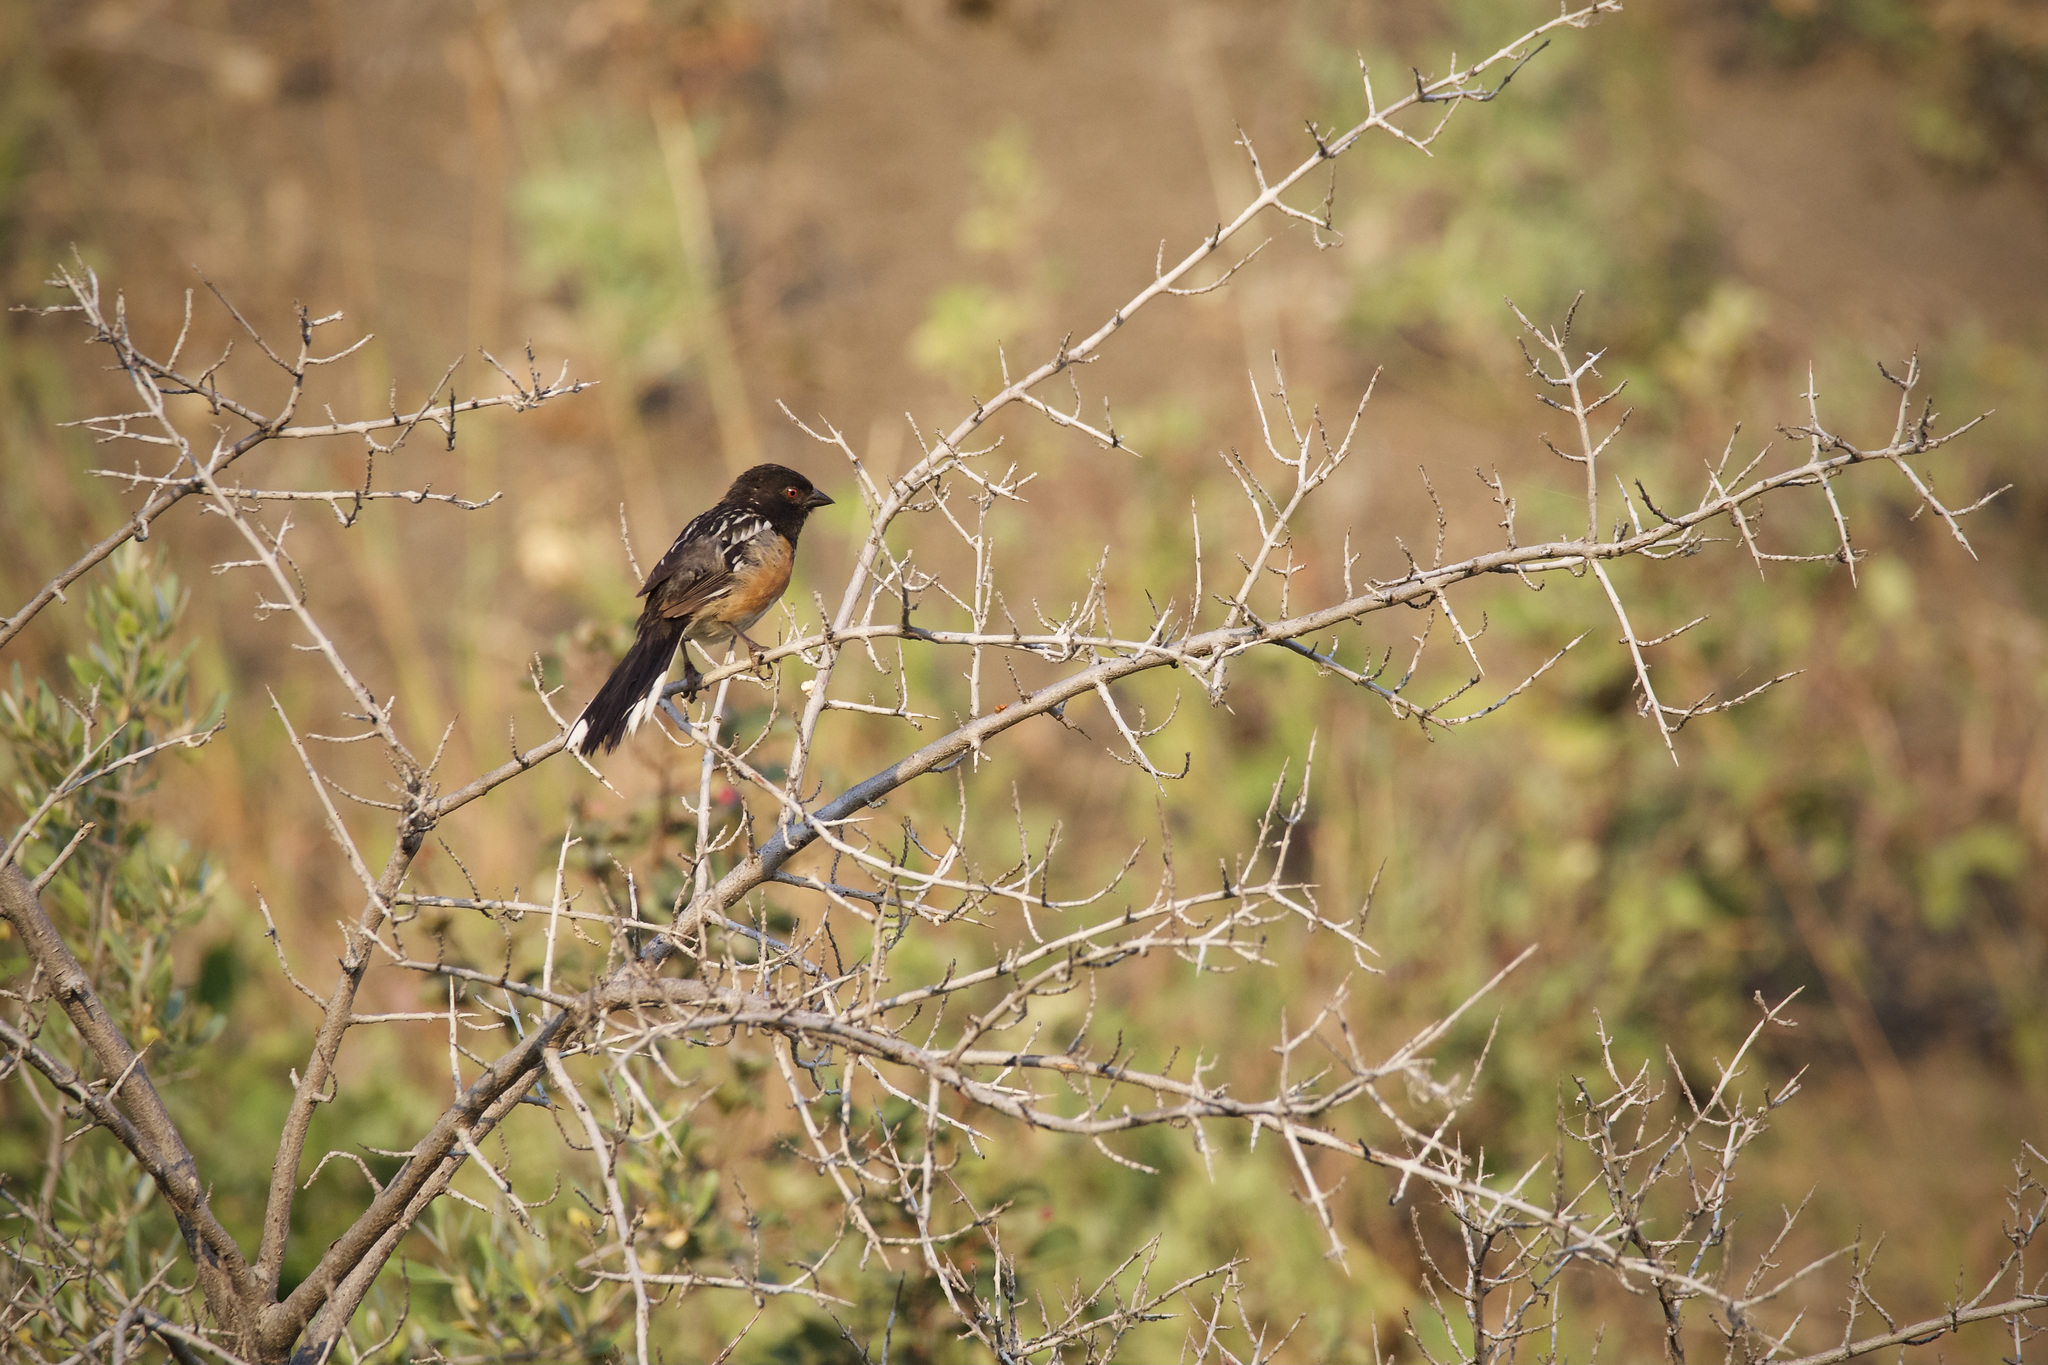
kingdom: Animalia
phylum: Chordata
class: Aves
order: Passeriformes
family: Passerellidae
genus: Pipilo
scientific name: Pipilo maculatus
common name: Spotted towhee
